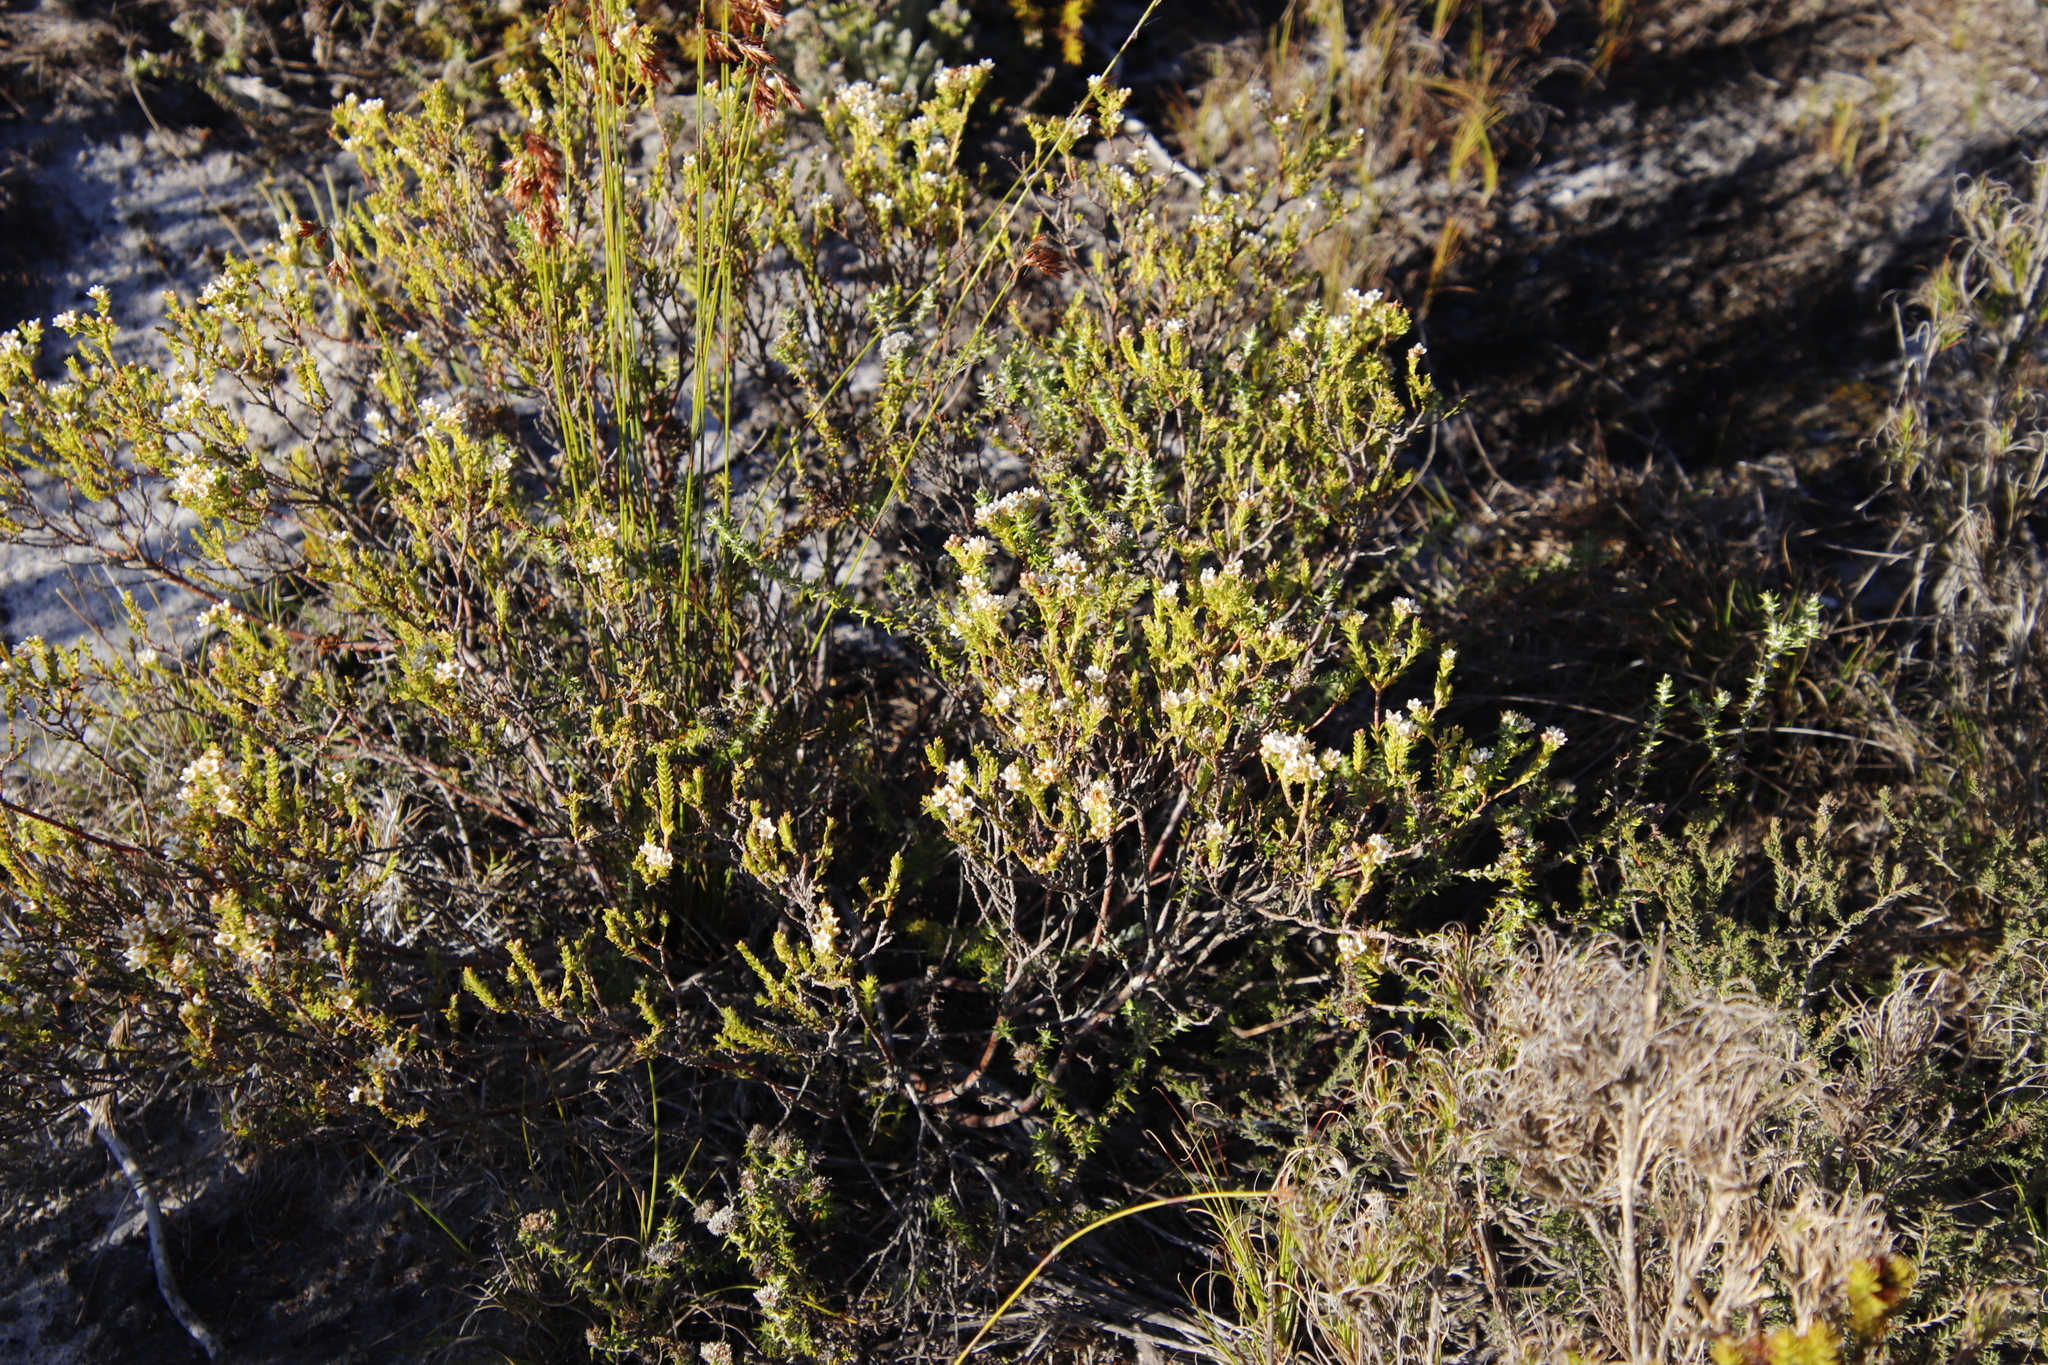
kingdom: Plantae
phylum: Tracheophyta
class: Magnoliopsida
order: Sapindales
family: Rutaceae
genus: Diosma
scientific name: Diosma oppositifolia
